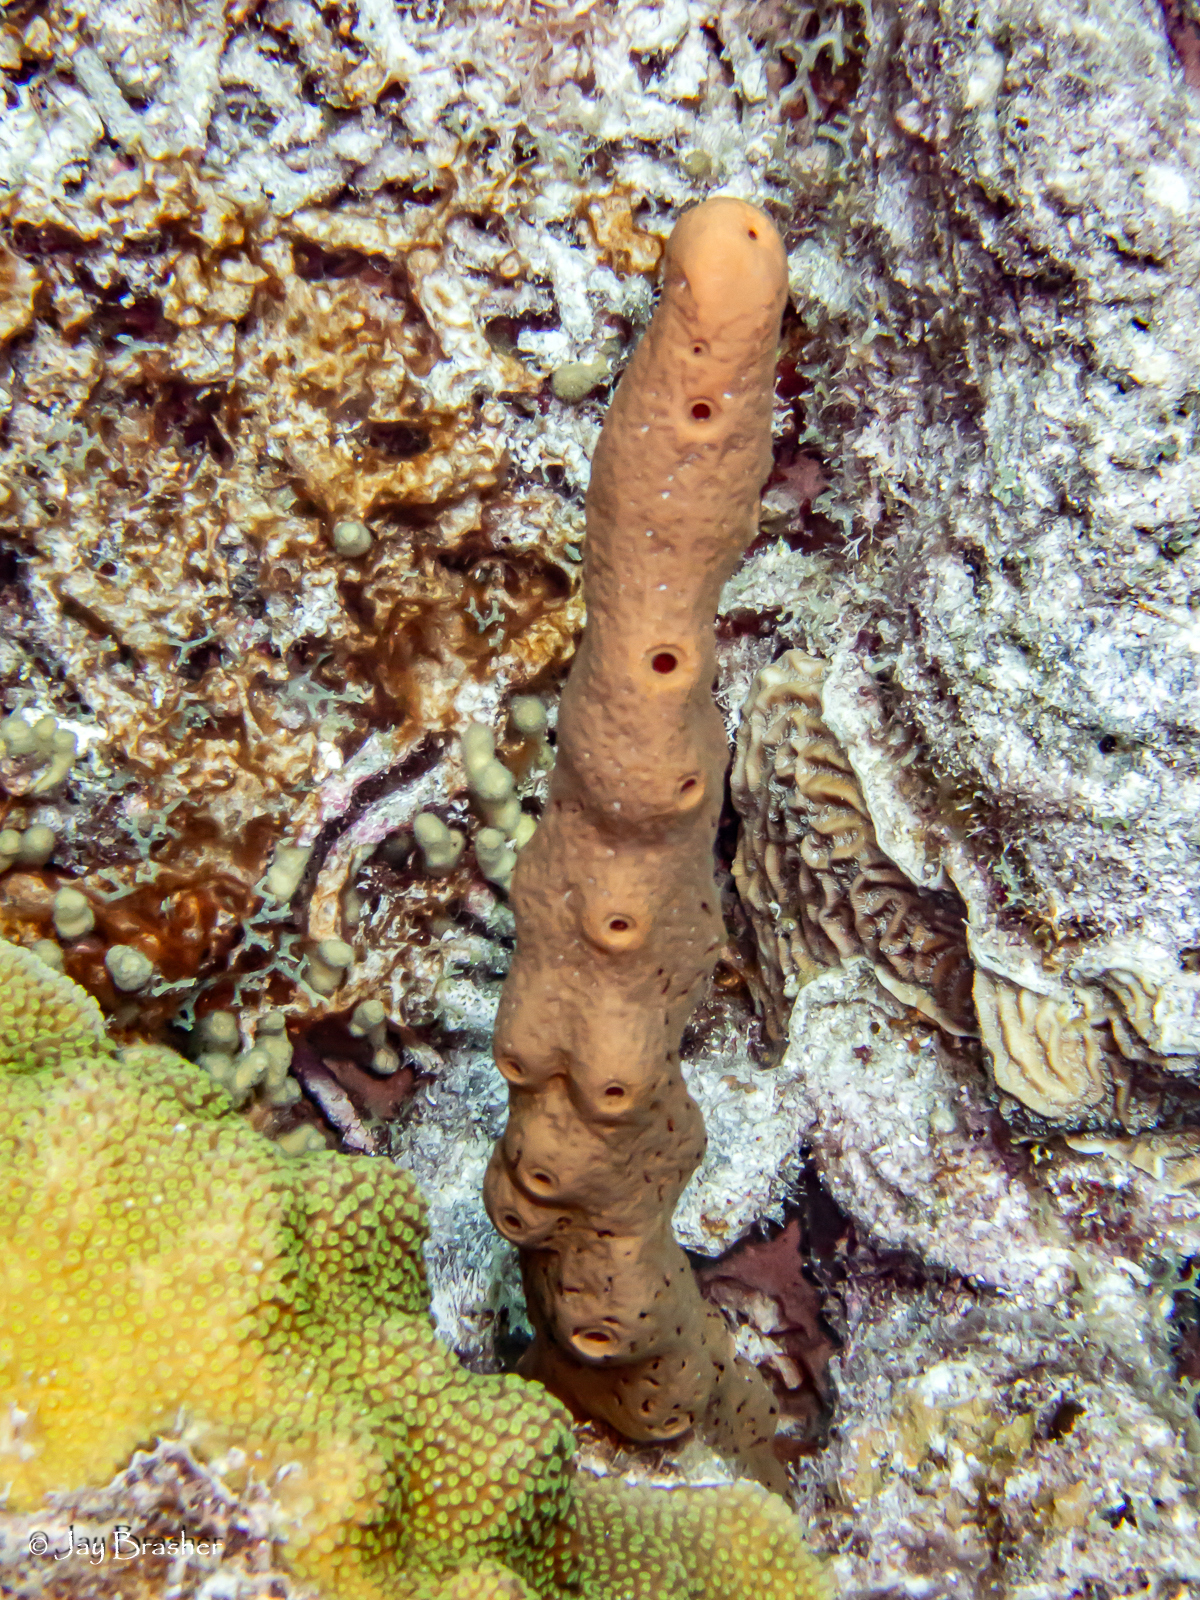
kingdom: Animalia
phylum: Porifera
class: Demospongiae
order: Agelasida
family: Agelasidae
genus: Agelas
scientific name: Agelas conifera
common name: Brown tube sponge
